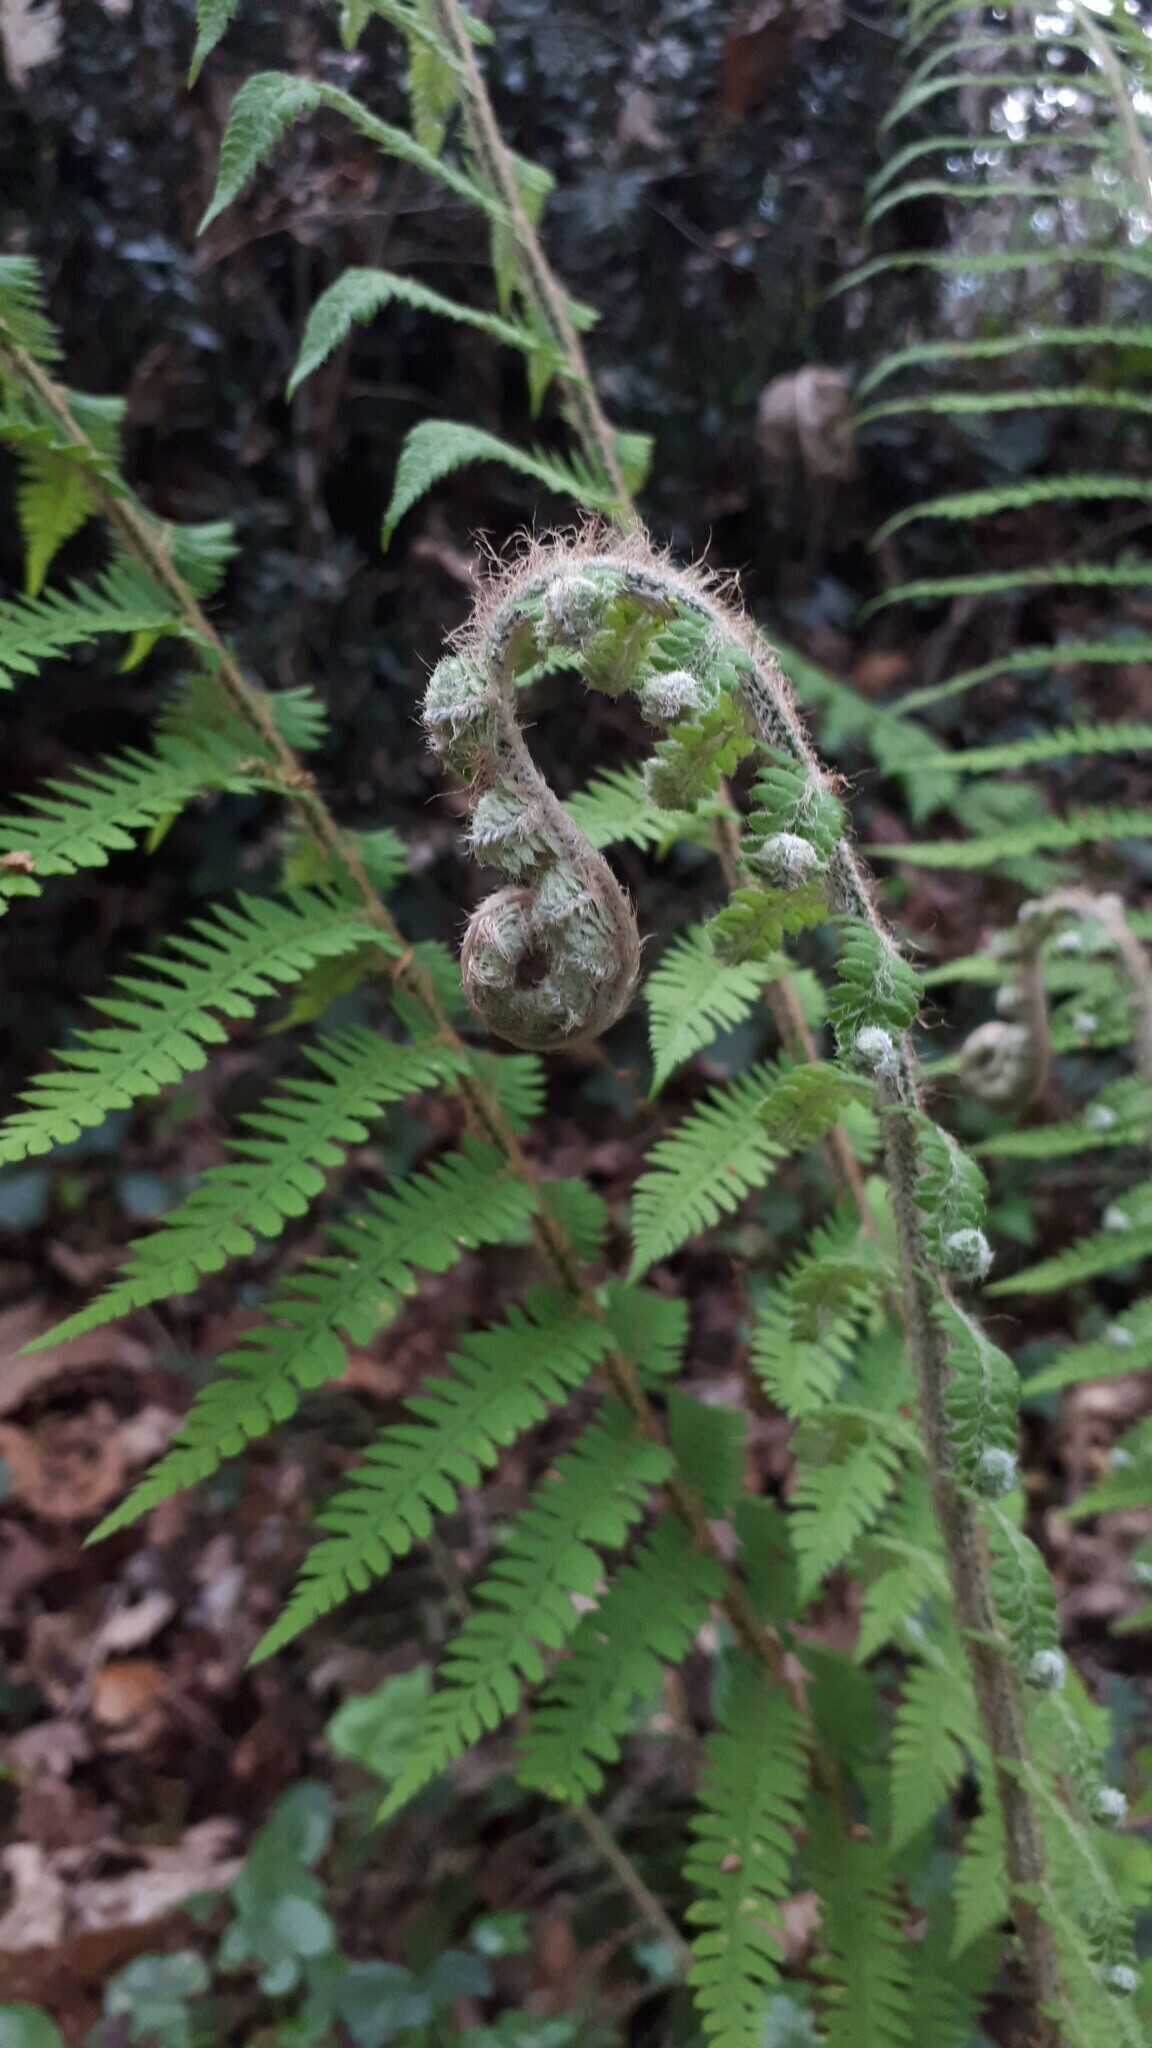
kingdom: Plantae
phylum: Tracheophyta
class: Polypodiopsida
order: Polypodiales
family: Dryopteridaceae
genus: Polystichum
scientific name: Polystichum setiferum
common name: Soft shield-fern
